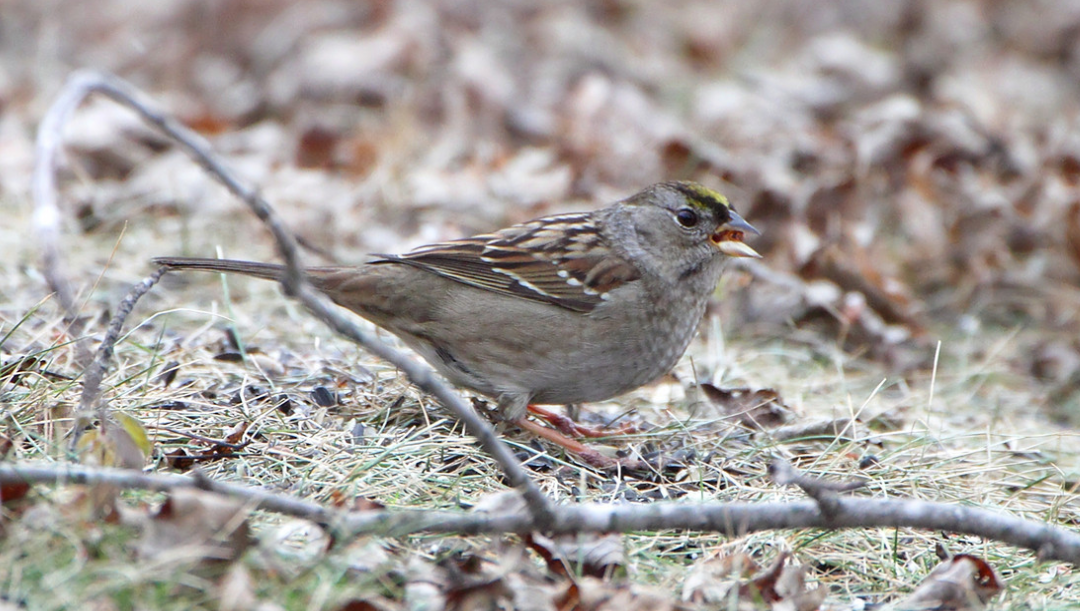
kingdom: Animalia
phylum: Chordata
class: Aves
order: Passeriformes
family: Passerellidae
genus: Zonotrichia
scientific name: Zonotrichia atricapilla
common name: Golden-crowned sparrow
